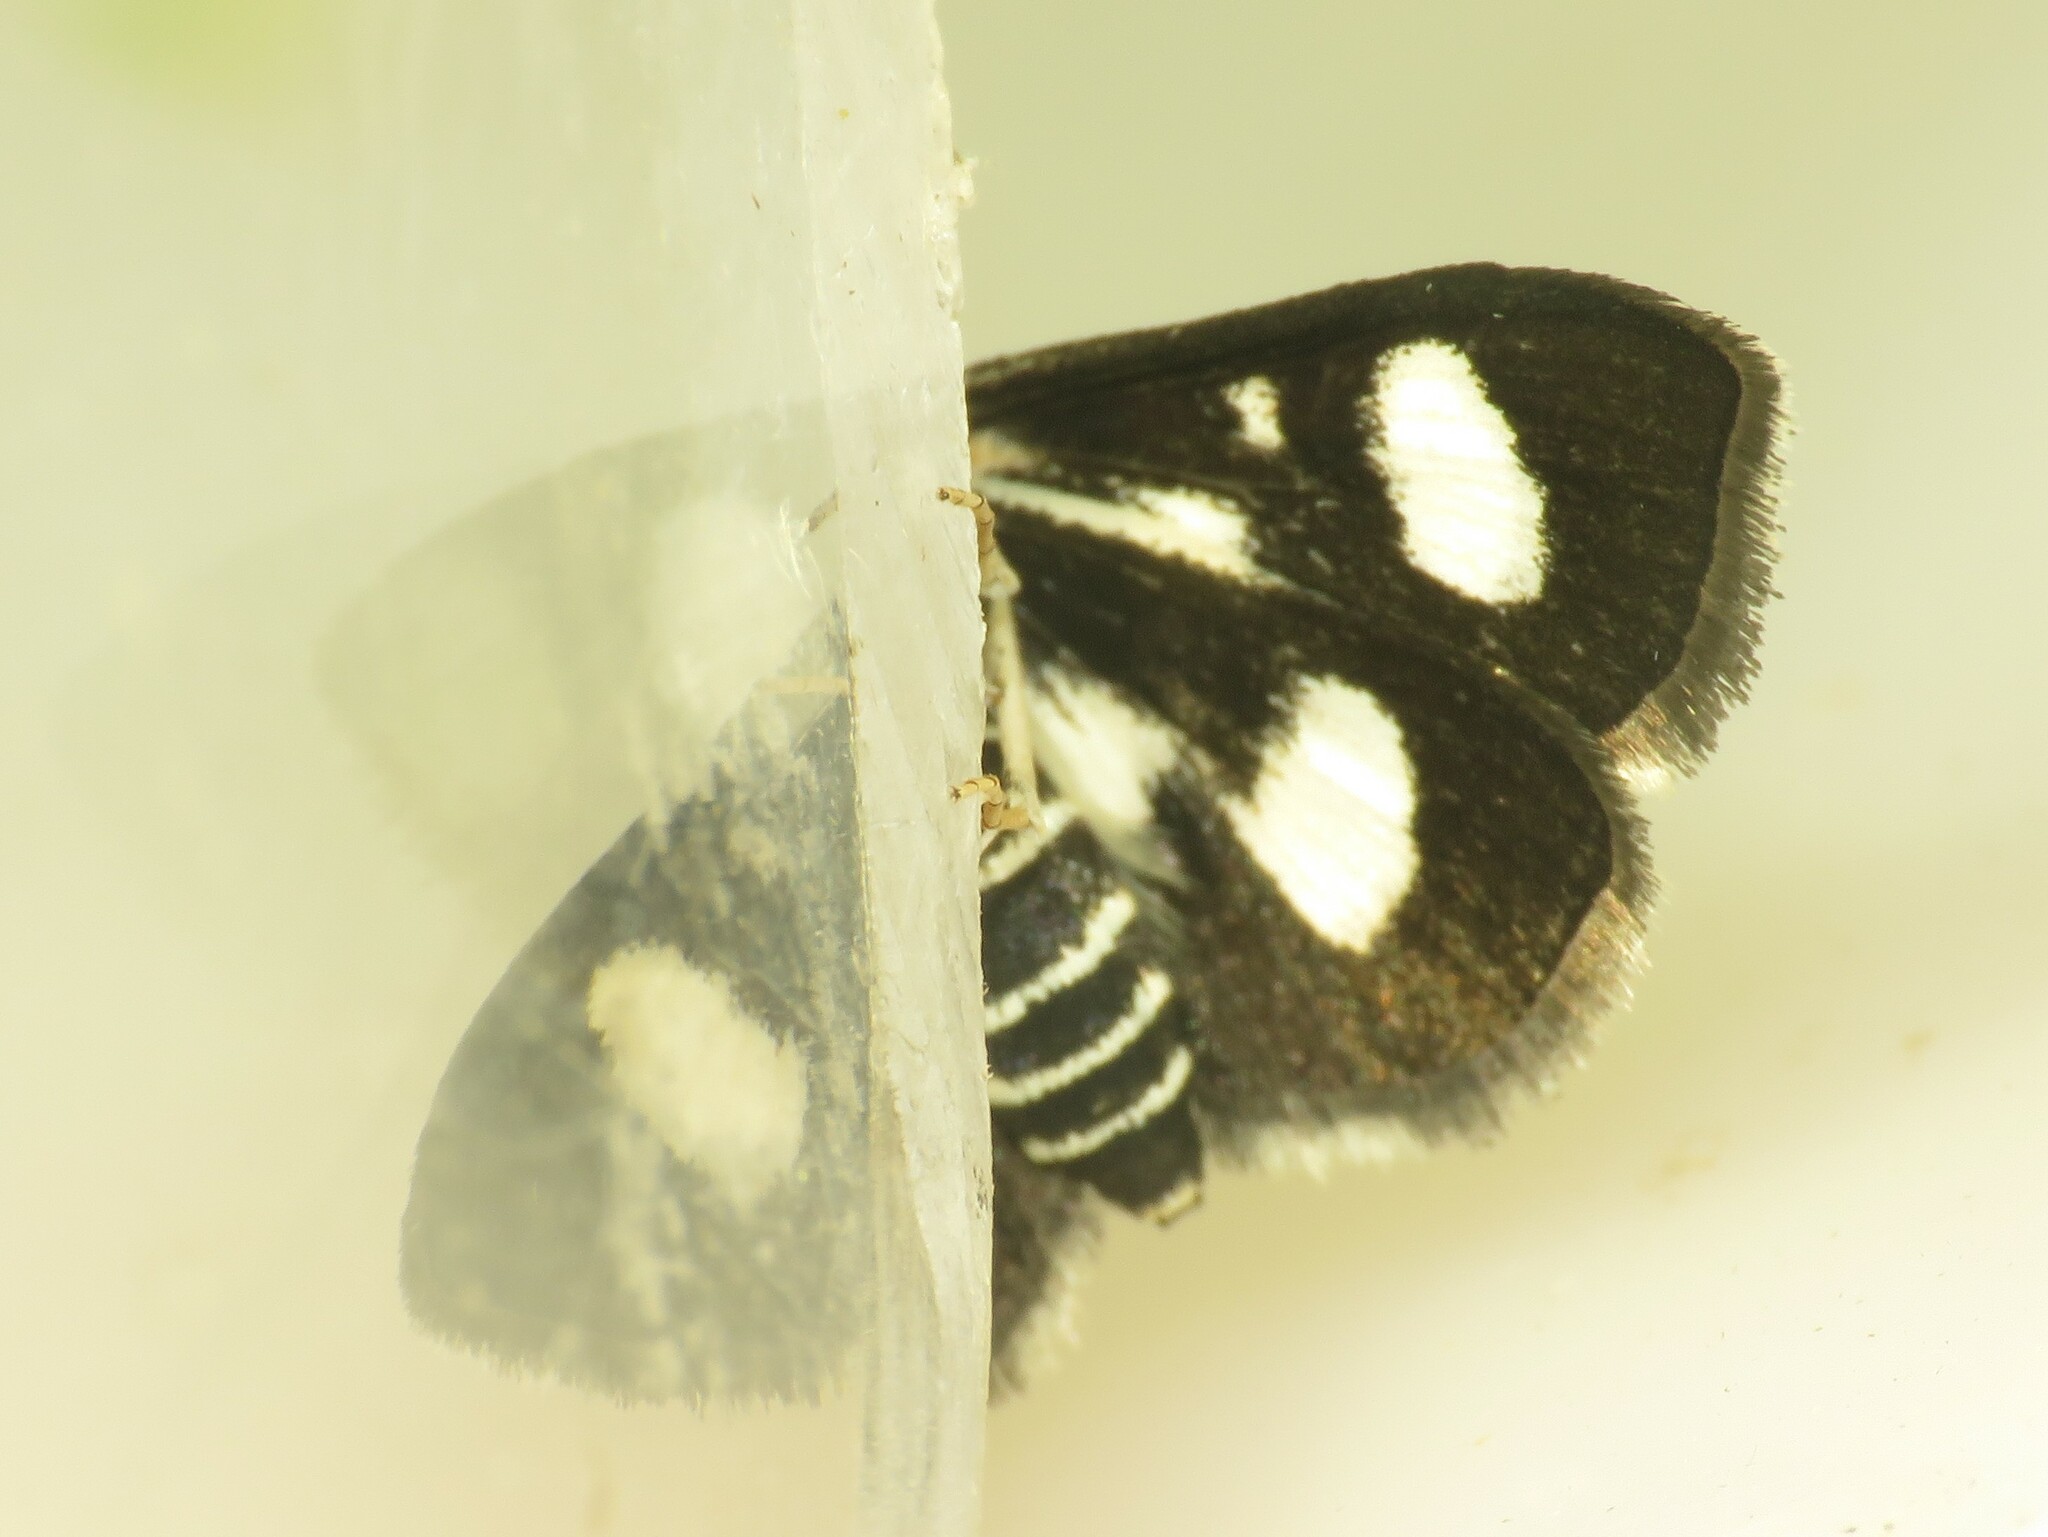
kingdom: Animalia
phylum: Arthropoda
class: Insecta
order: Lepidoptera
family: Crambidae
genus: Anania
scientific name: Anania funebris
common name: White-spotted sable moth
